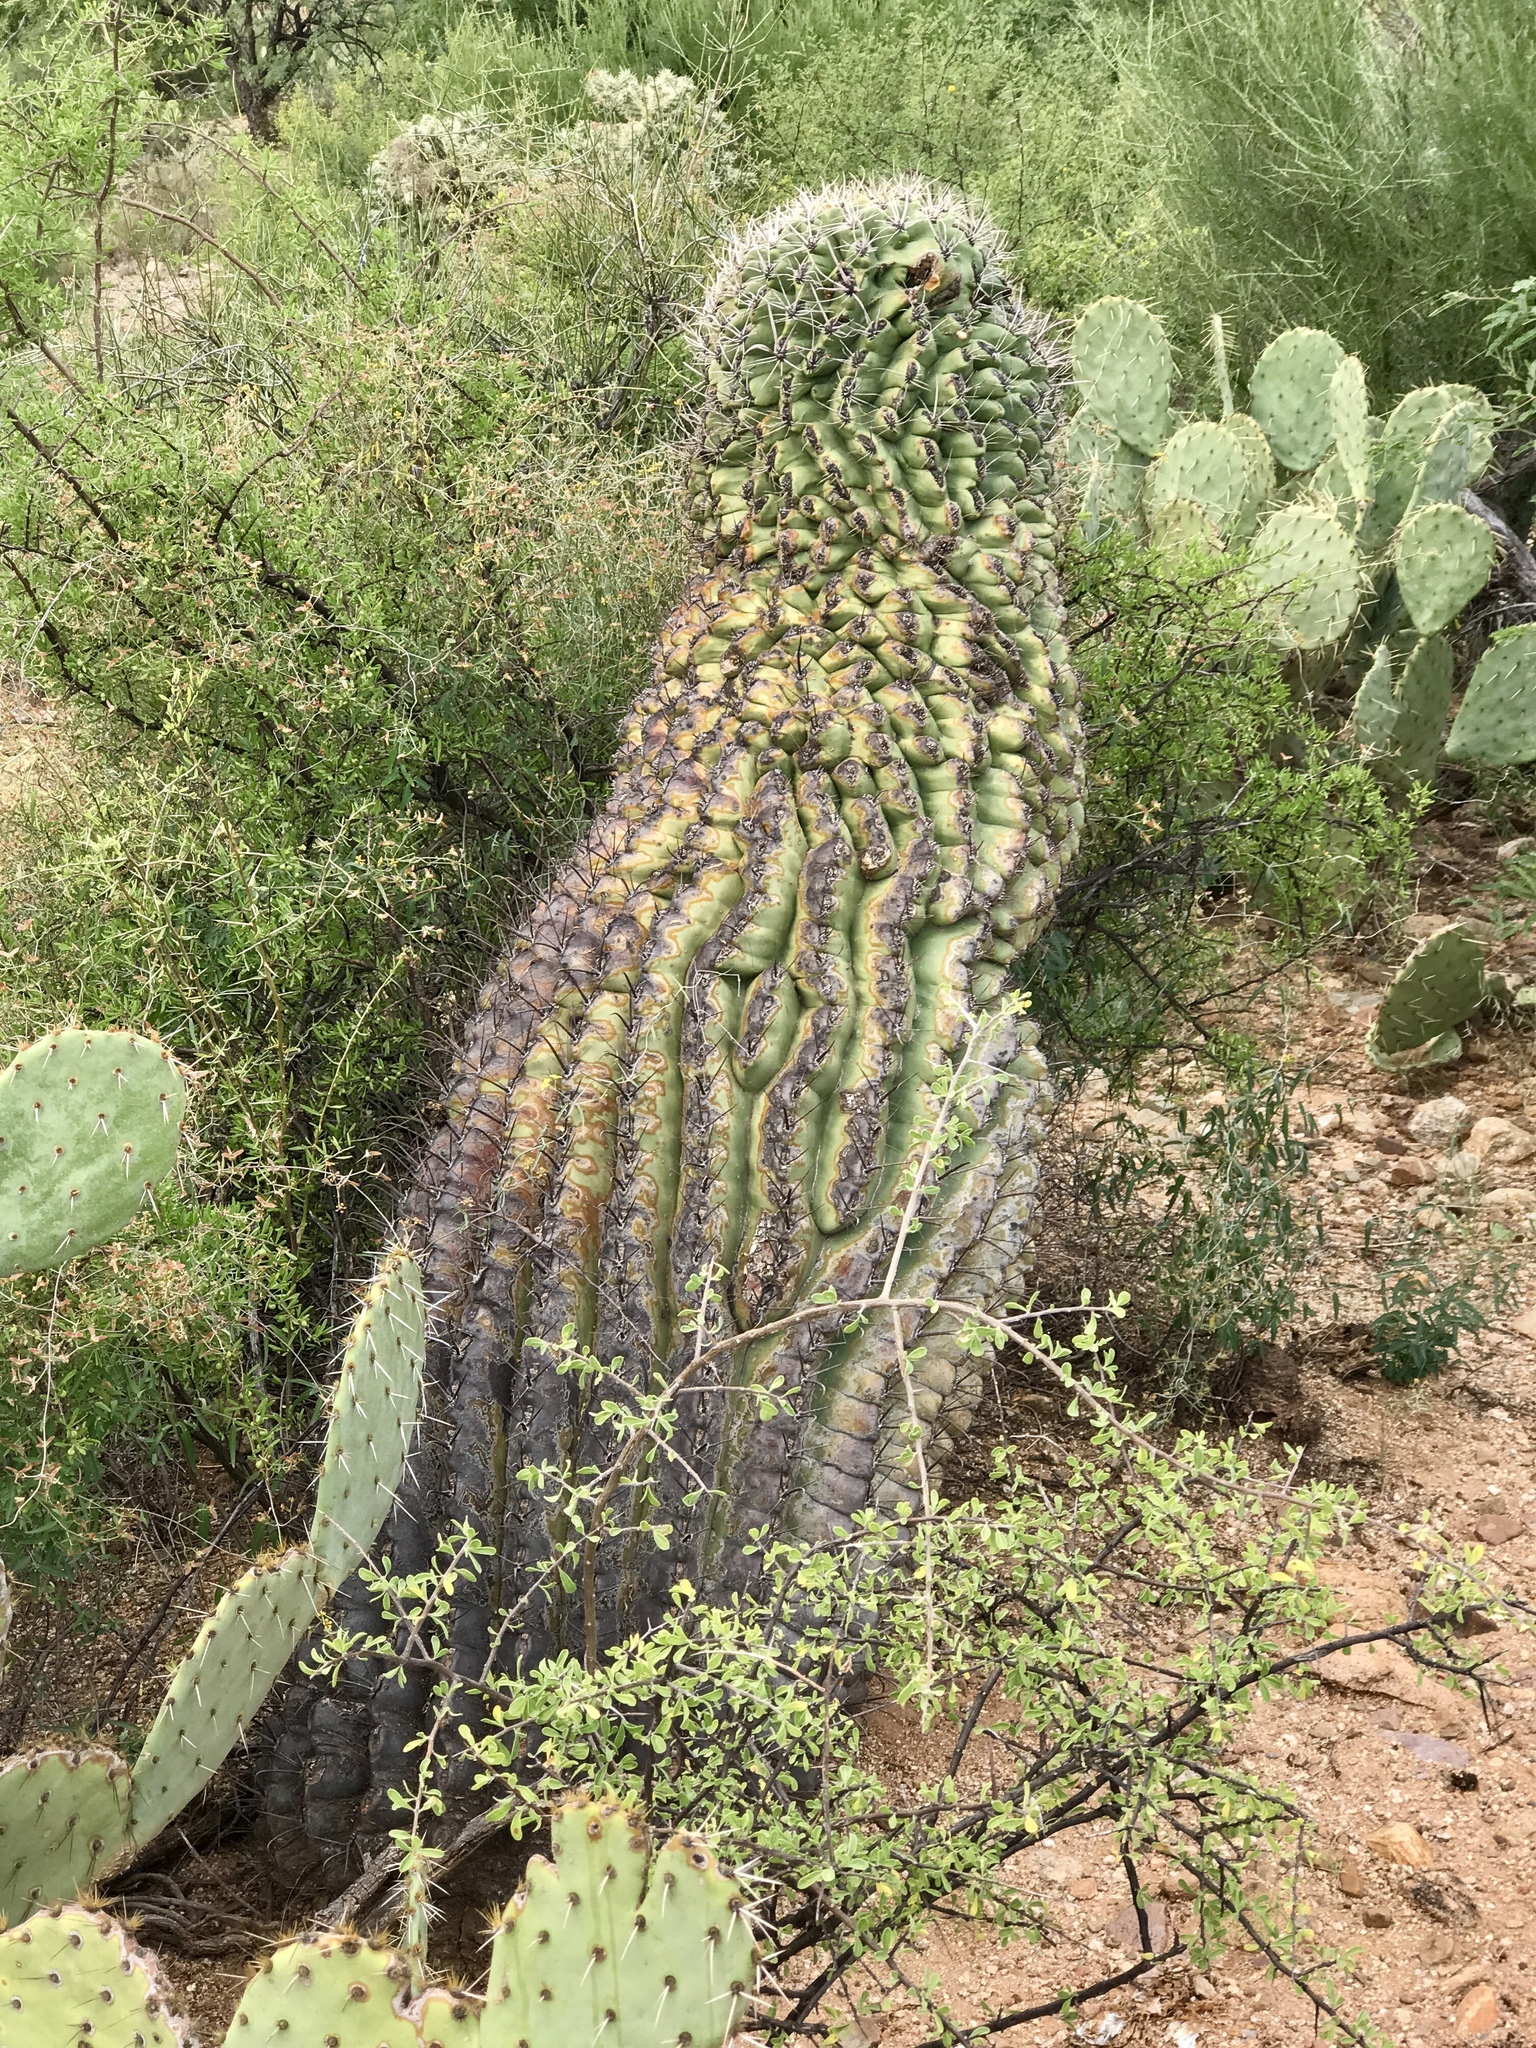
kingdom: Plantae
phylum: Tracheophyta
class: Magnoliopsida
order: Caryophyllales
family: Cactaceae
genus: Ferocactus
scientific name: Ferocactus wislizeni
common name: Candy barrel cactus
